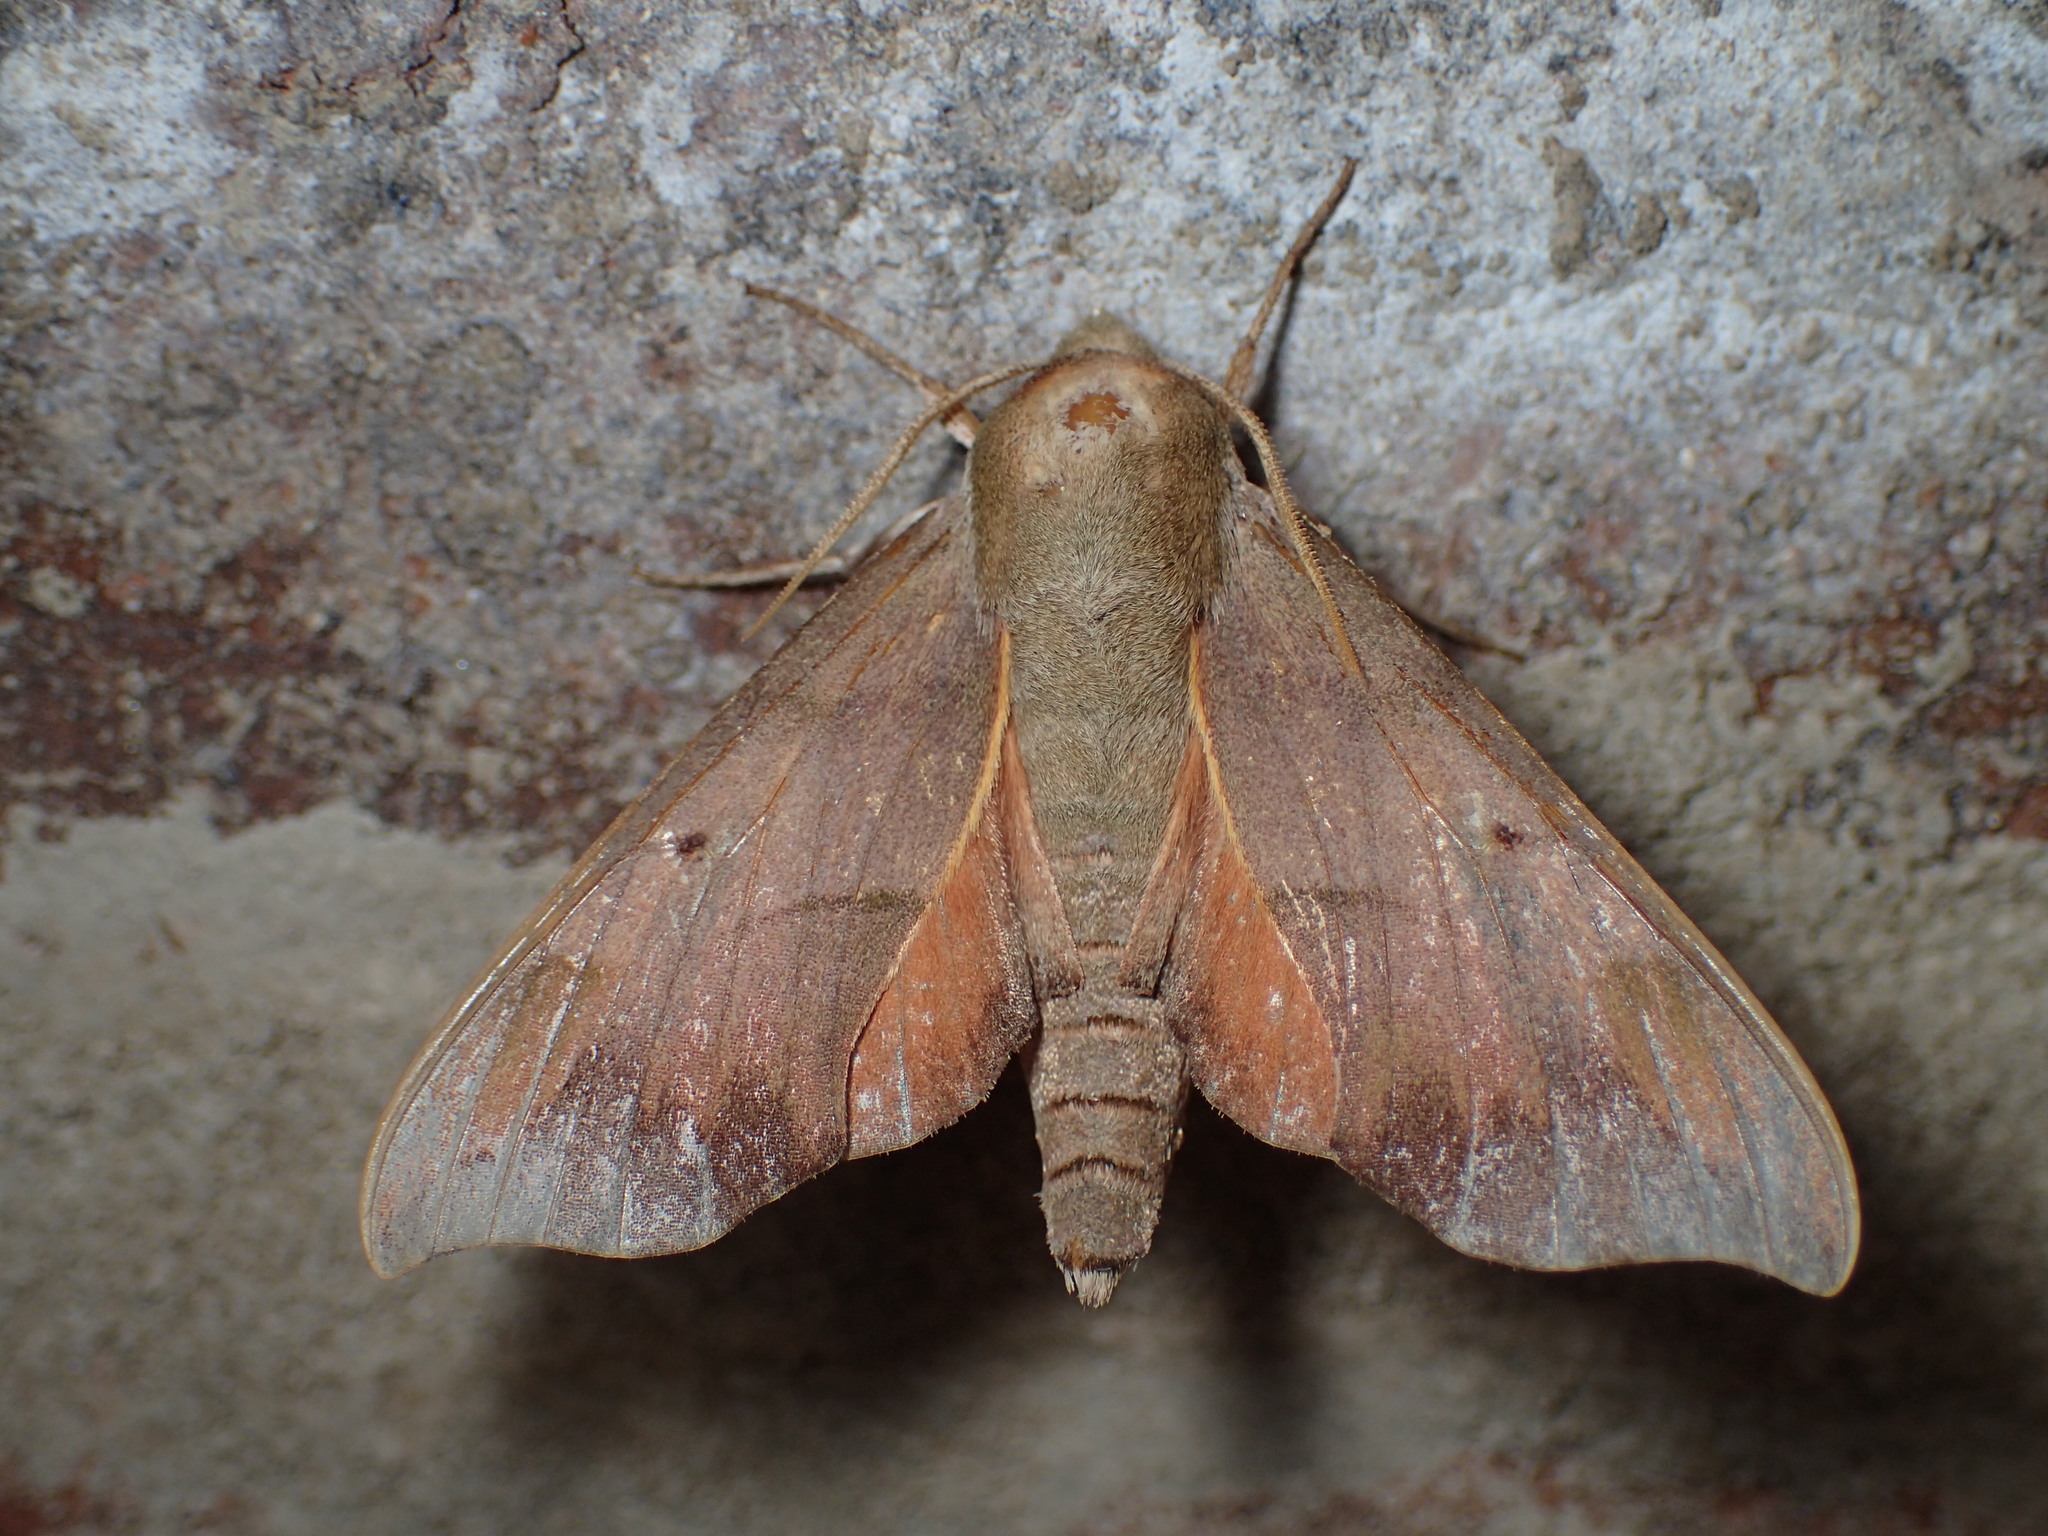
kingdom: Animalia
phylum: Arthropoda
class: Insecta
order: Lepidoptera
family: Sphingidae
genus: Darapsa
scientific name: Darapsa myron
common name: Hog sphinx
